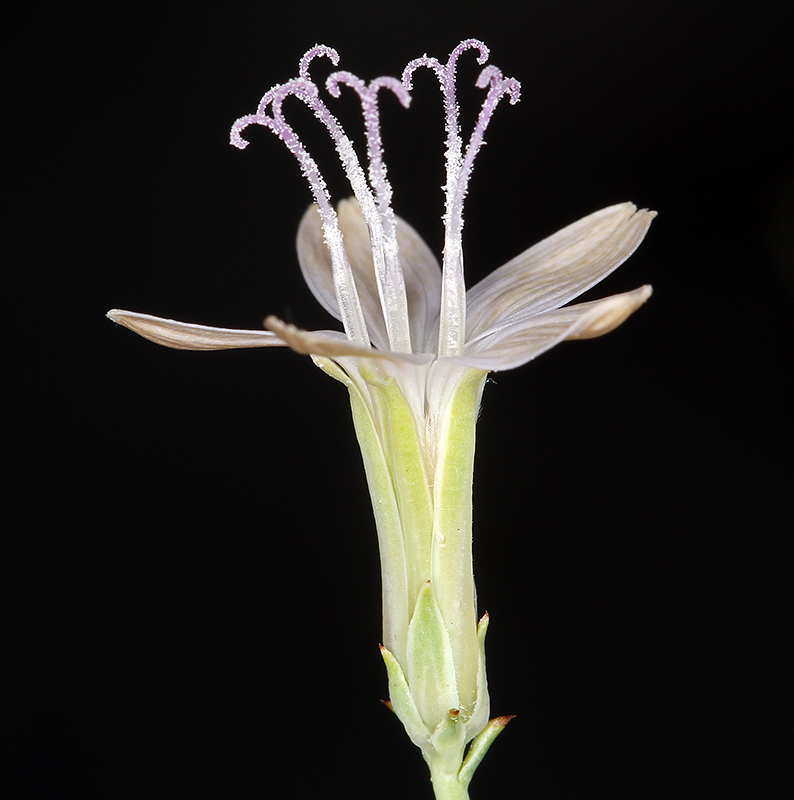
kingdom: Plantae
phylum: Tracheophyta
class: Magnoliopsida
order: Asterales
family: Asteraceae
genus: Stephanomeria
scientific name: Stephanomeria pauciflora
